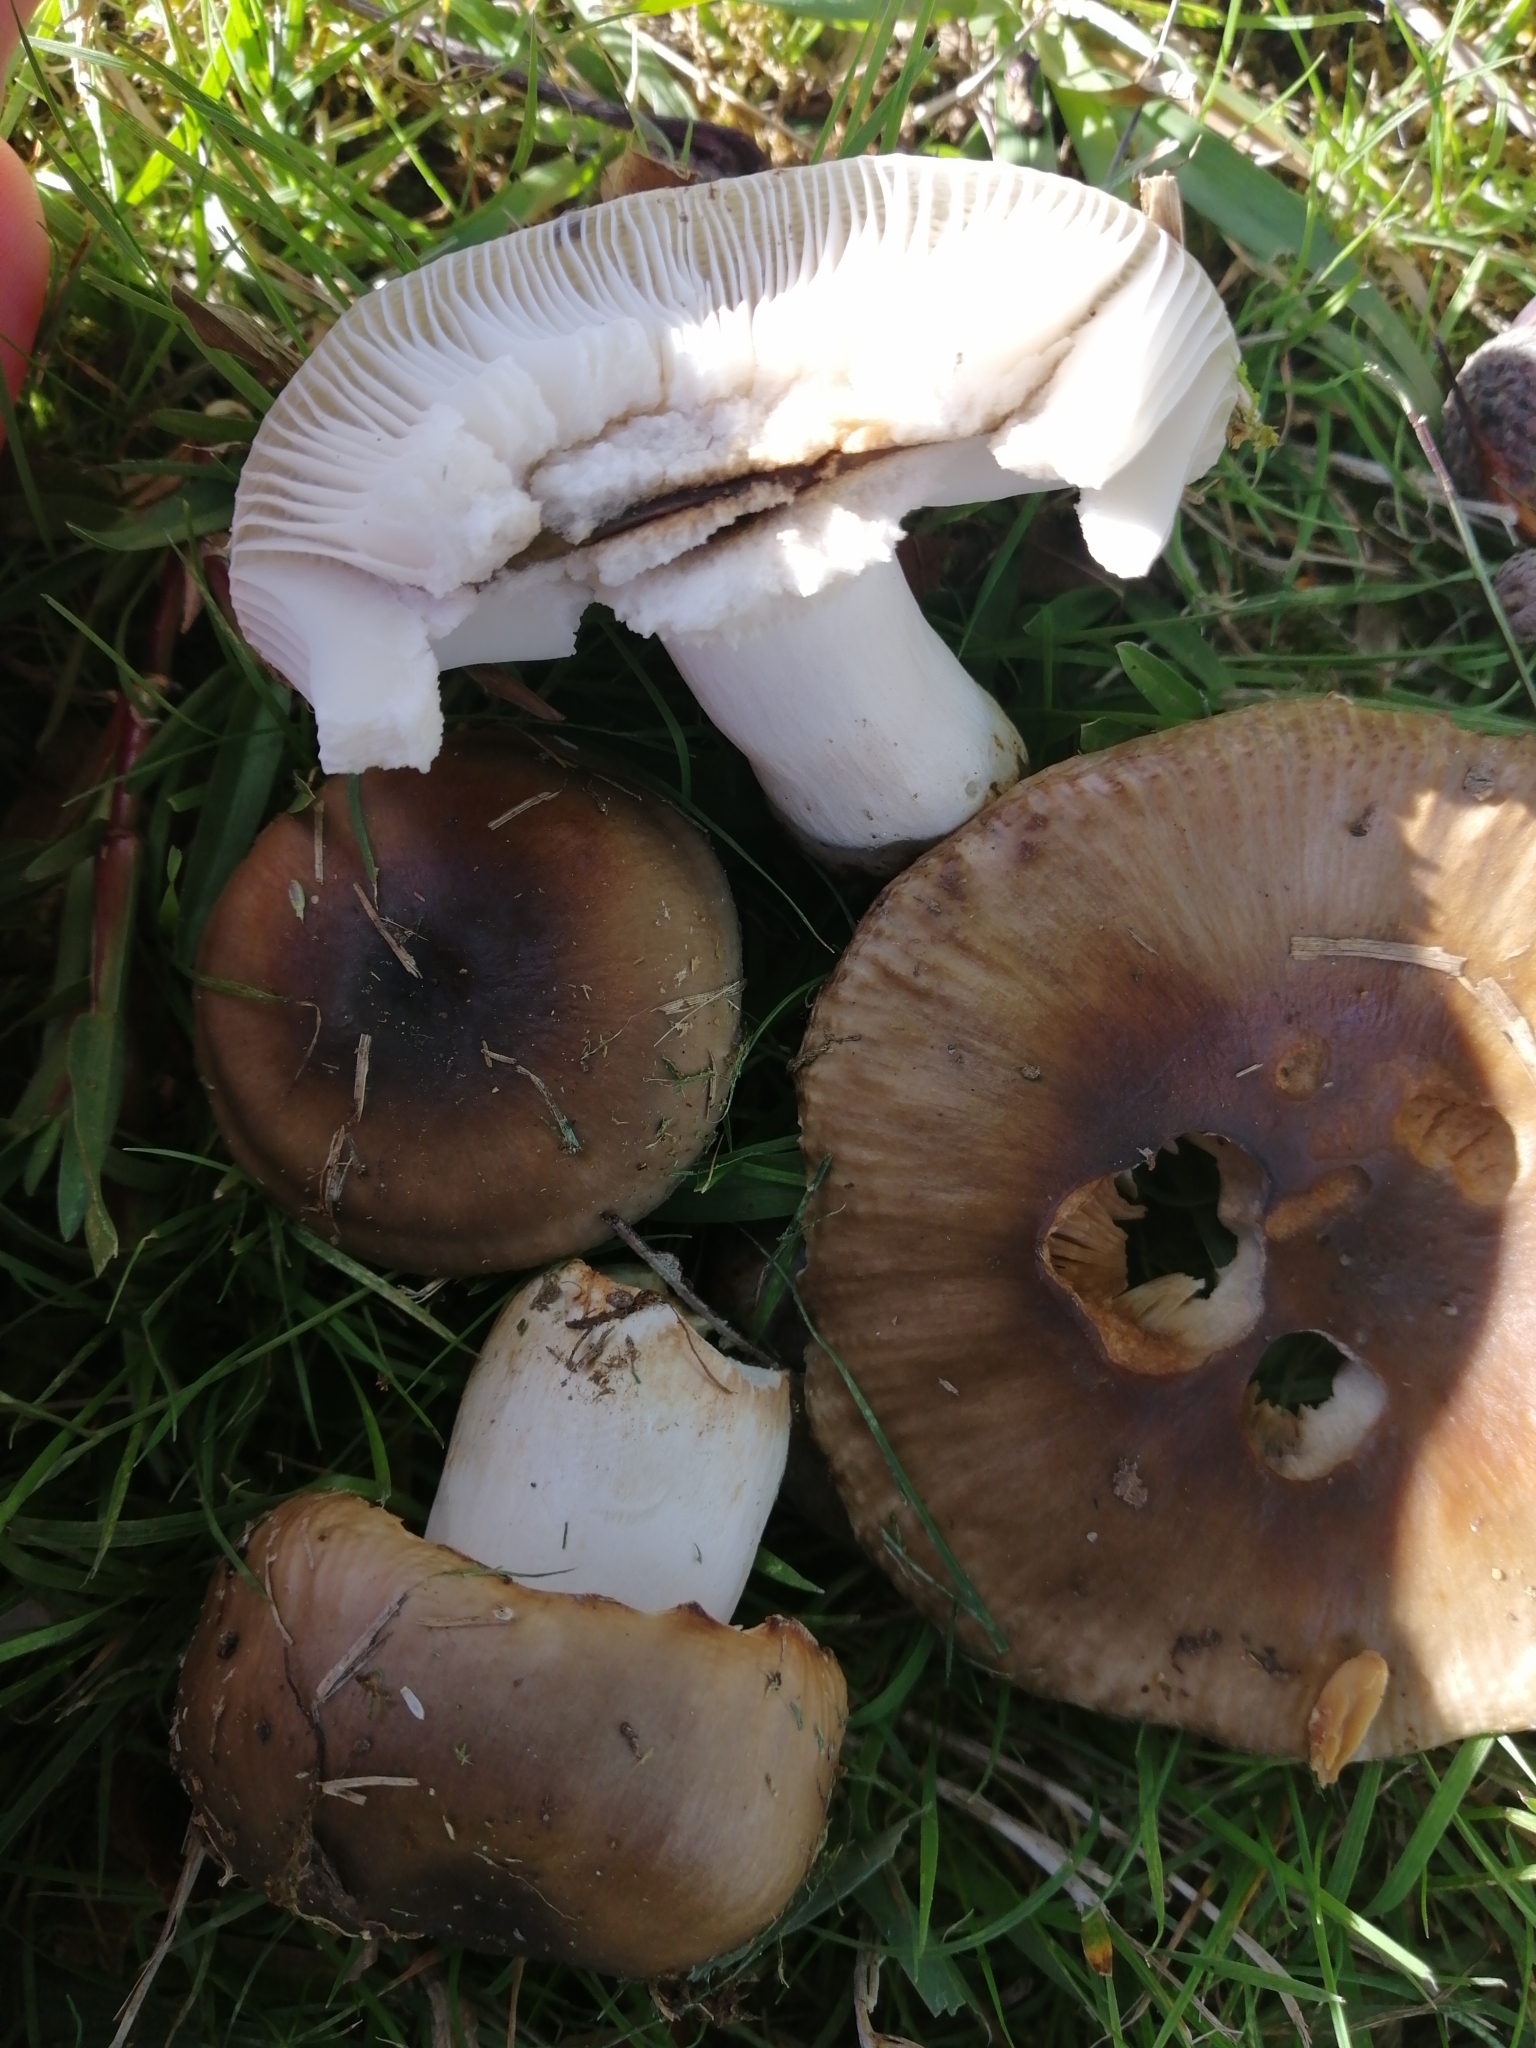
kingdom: Fungi
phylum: Basidiomycota
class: Agaricomycetes
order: Russulales
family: Russulaceae
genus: Russula
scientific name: Russula amoenolens
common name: Camembert brittlegill
